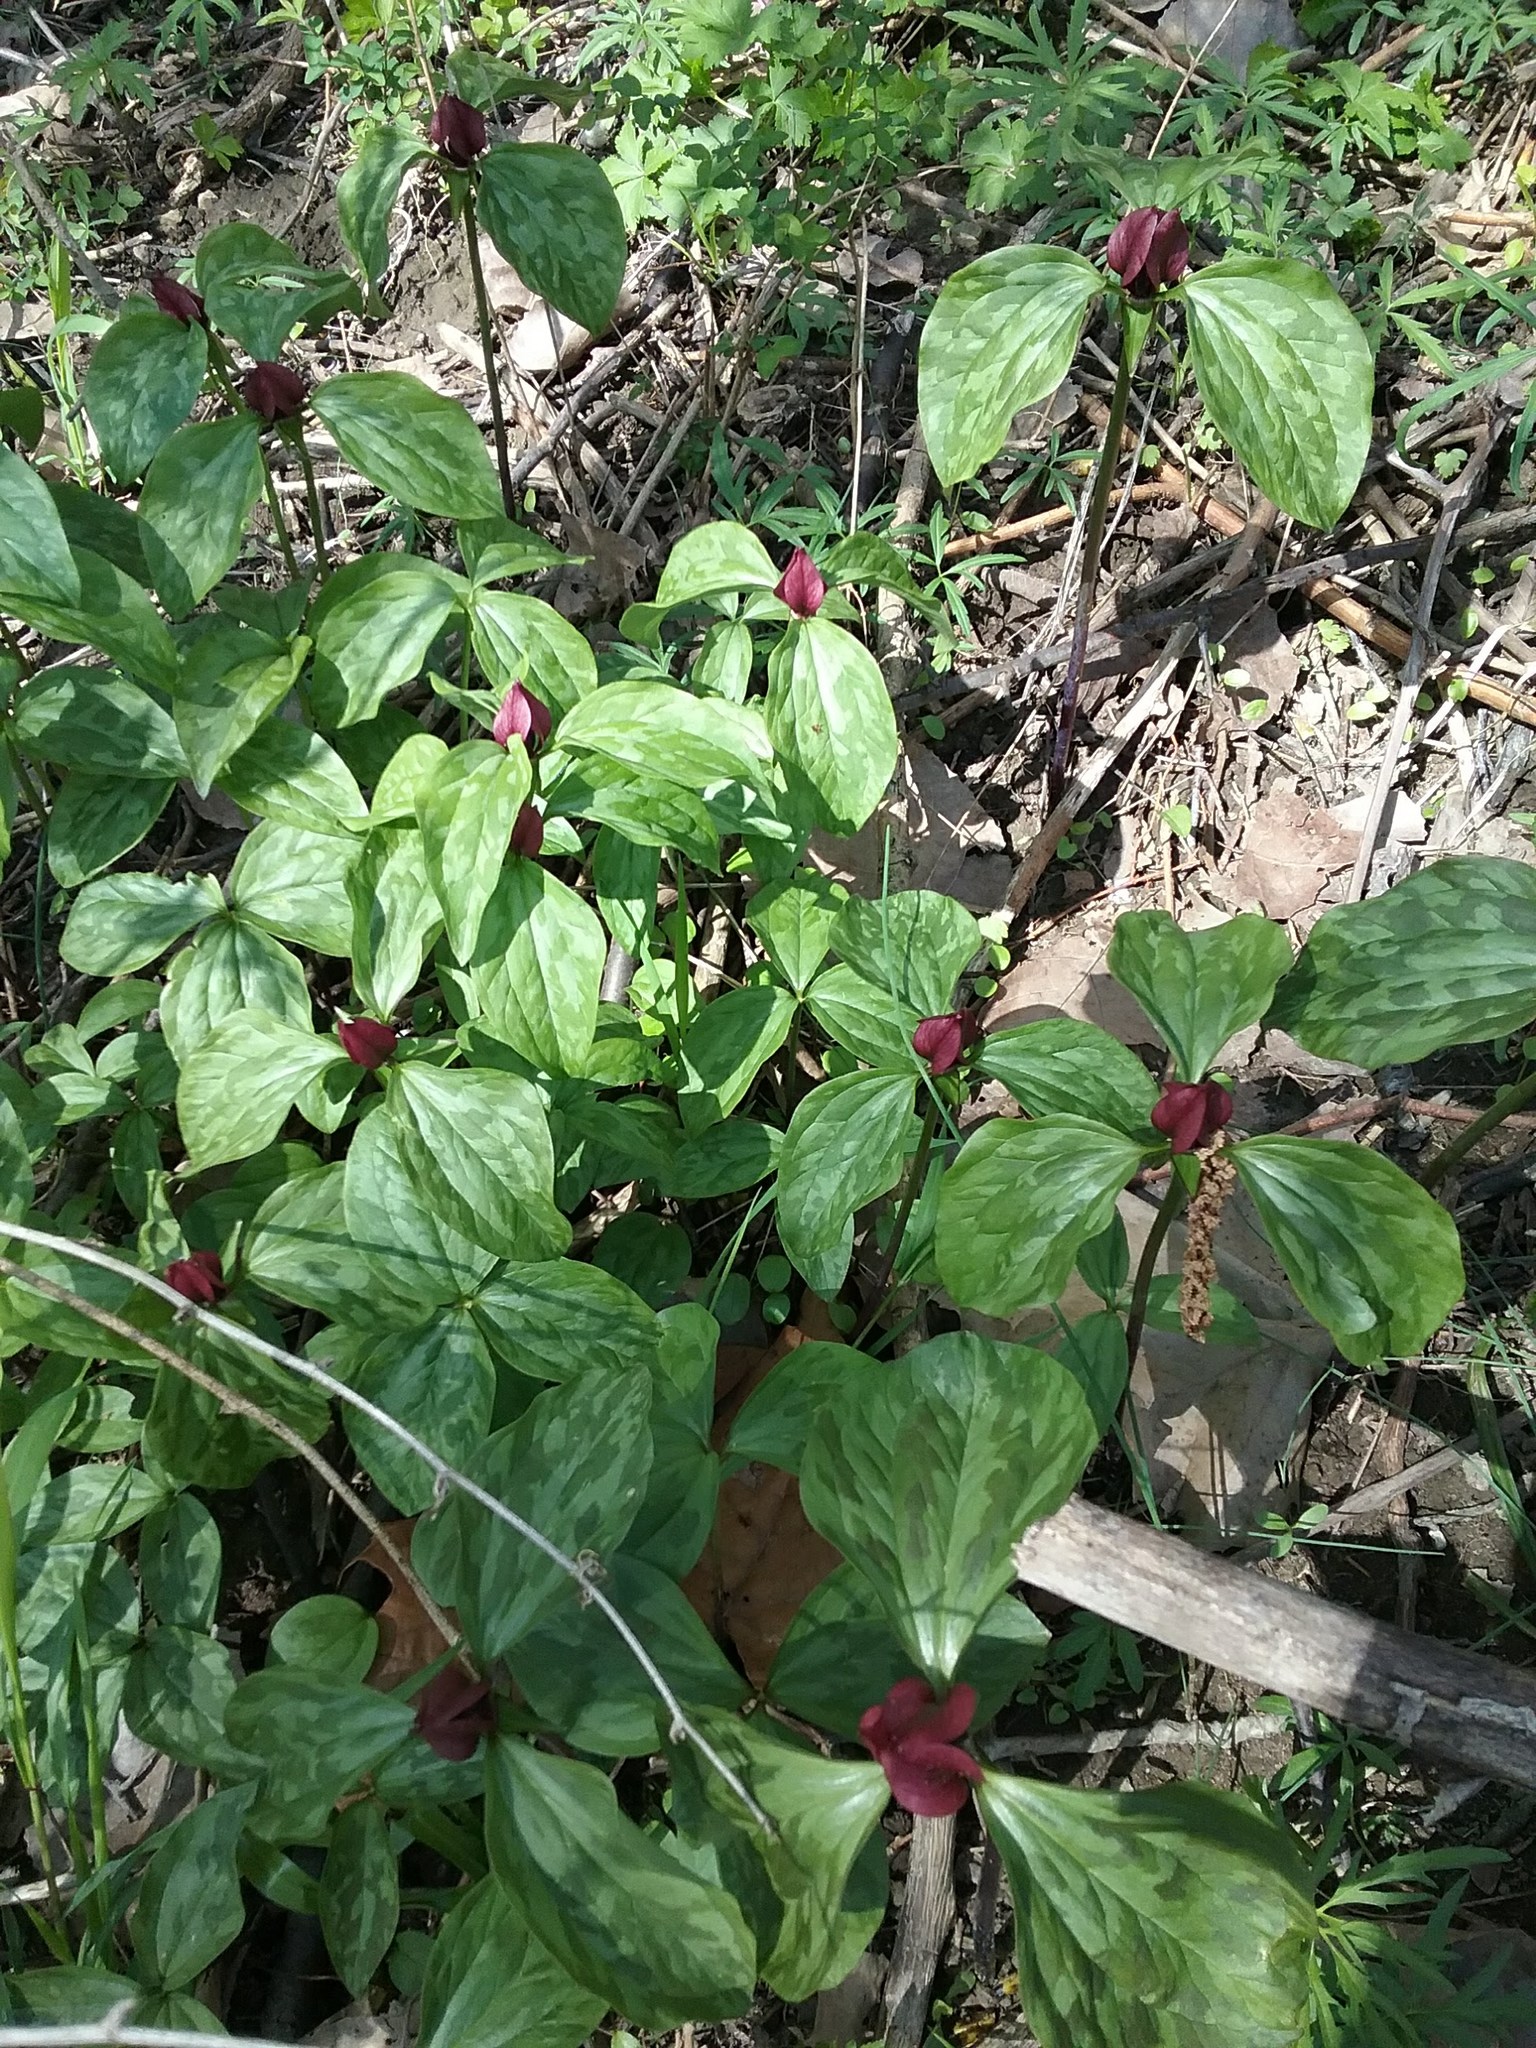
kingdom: Plantae
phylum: Tracheophyta
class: Liliopsida
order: Liliales
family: Melanthiaceae
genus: Trillium
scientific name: Trillium recurvatum
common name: Bloody butcher
